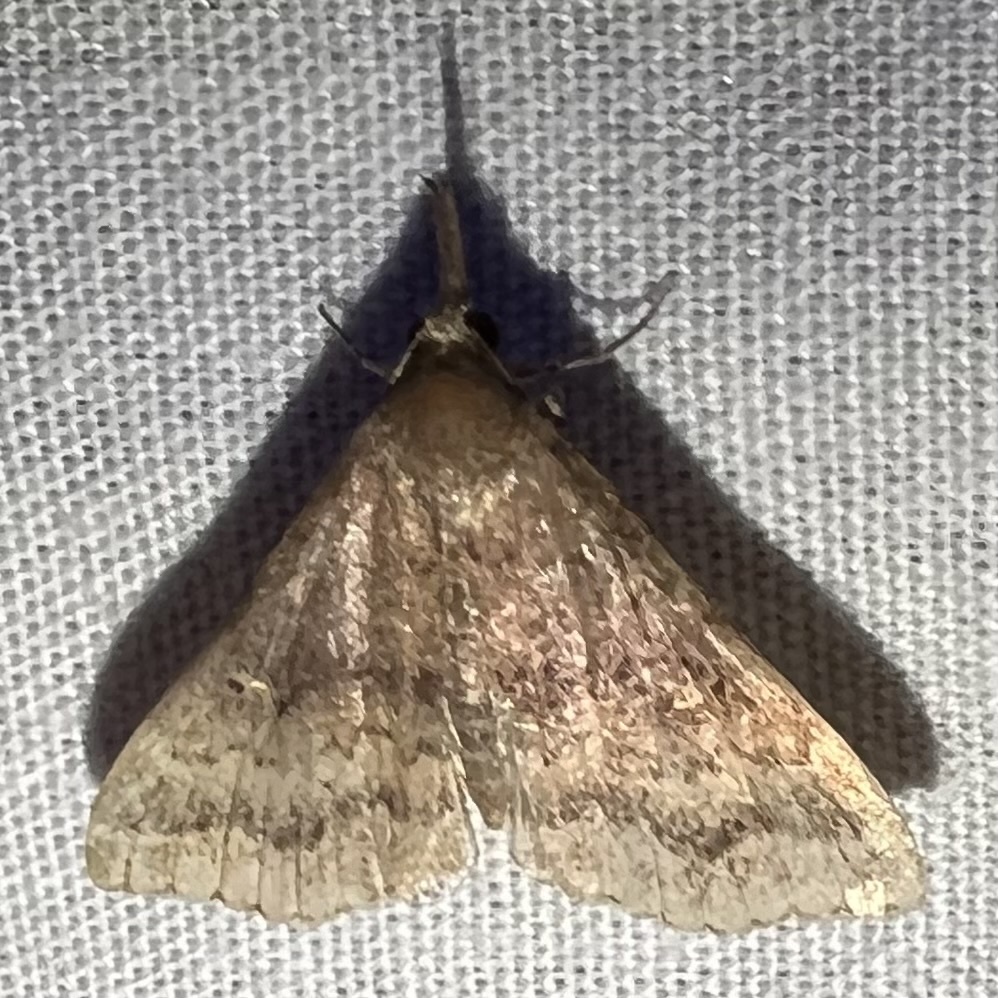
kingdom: Animalia
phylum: Arthropoda
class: Insecta
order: Lepidoptera
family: Erebidae
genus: Renia
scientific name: Renia discoloralis
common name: Discolored renia moth
